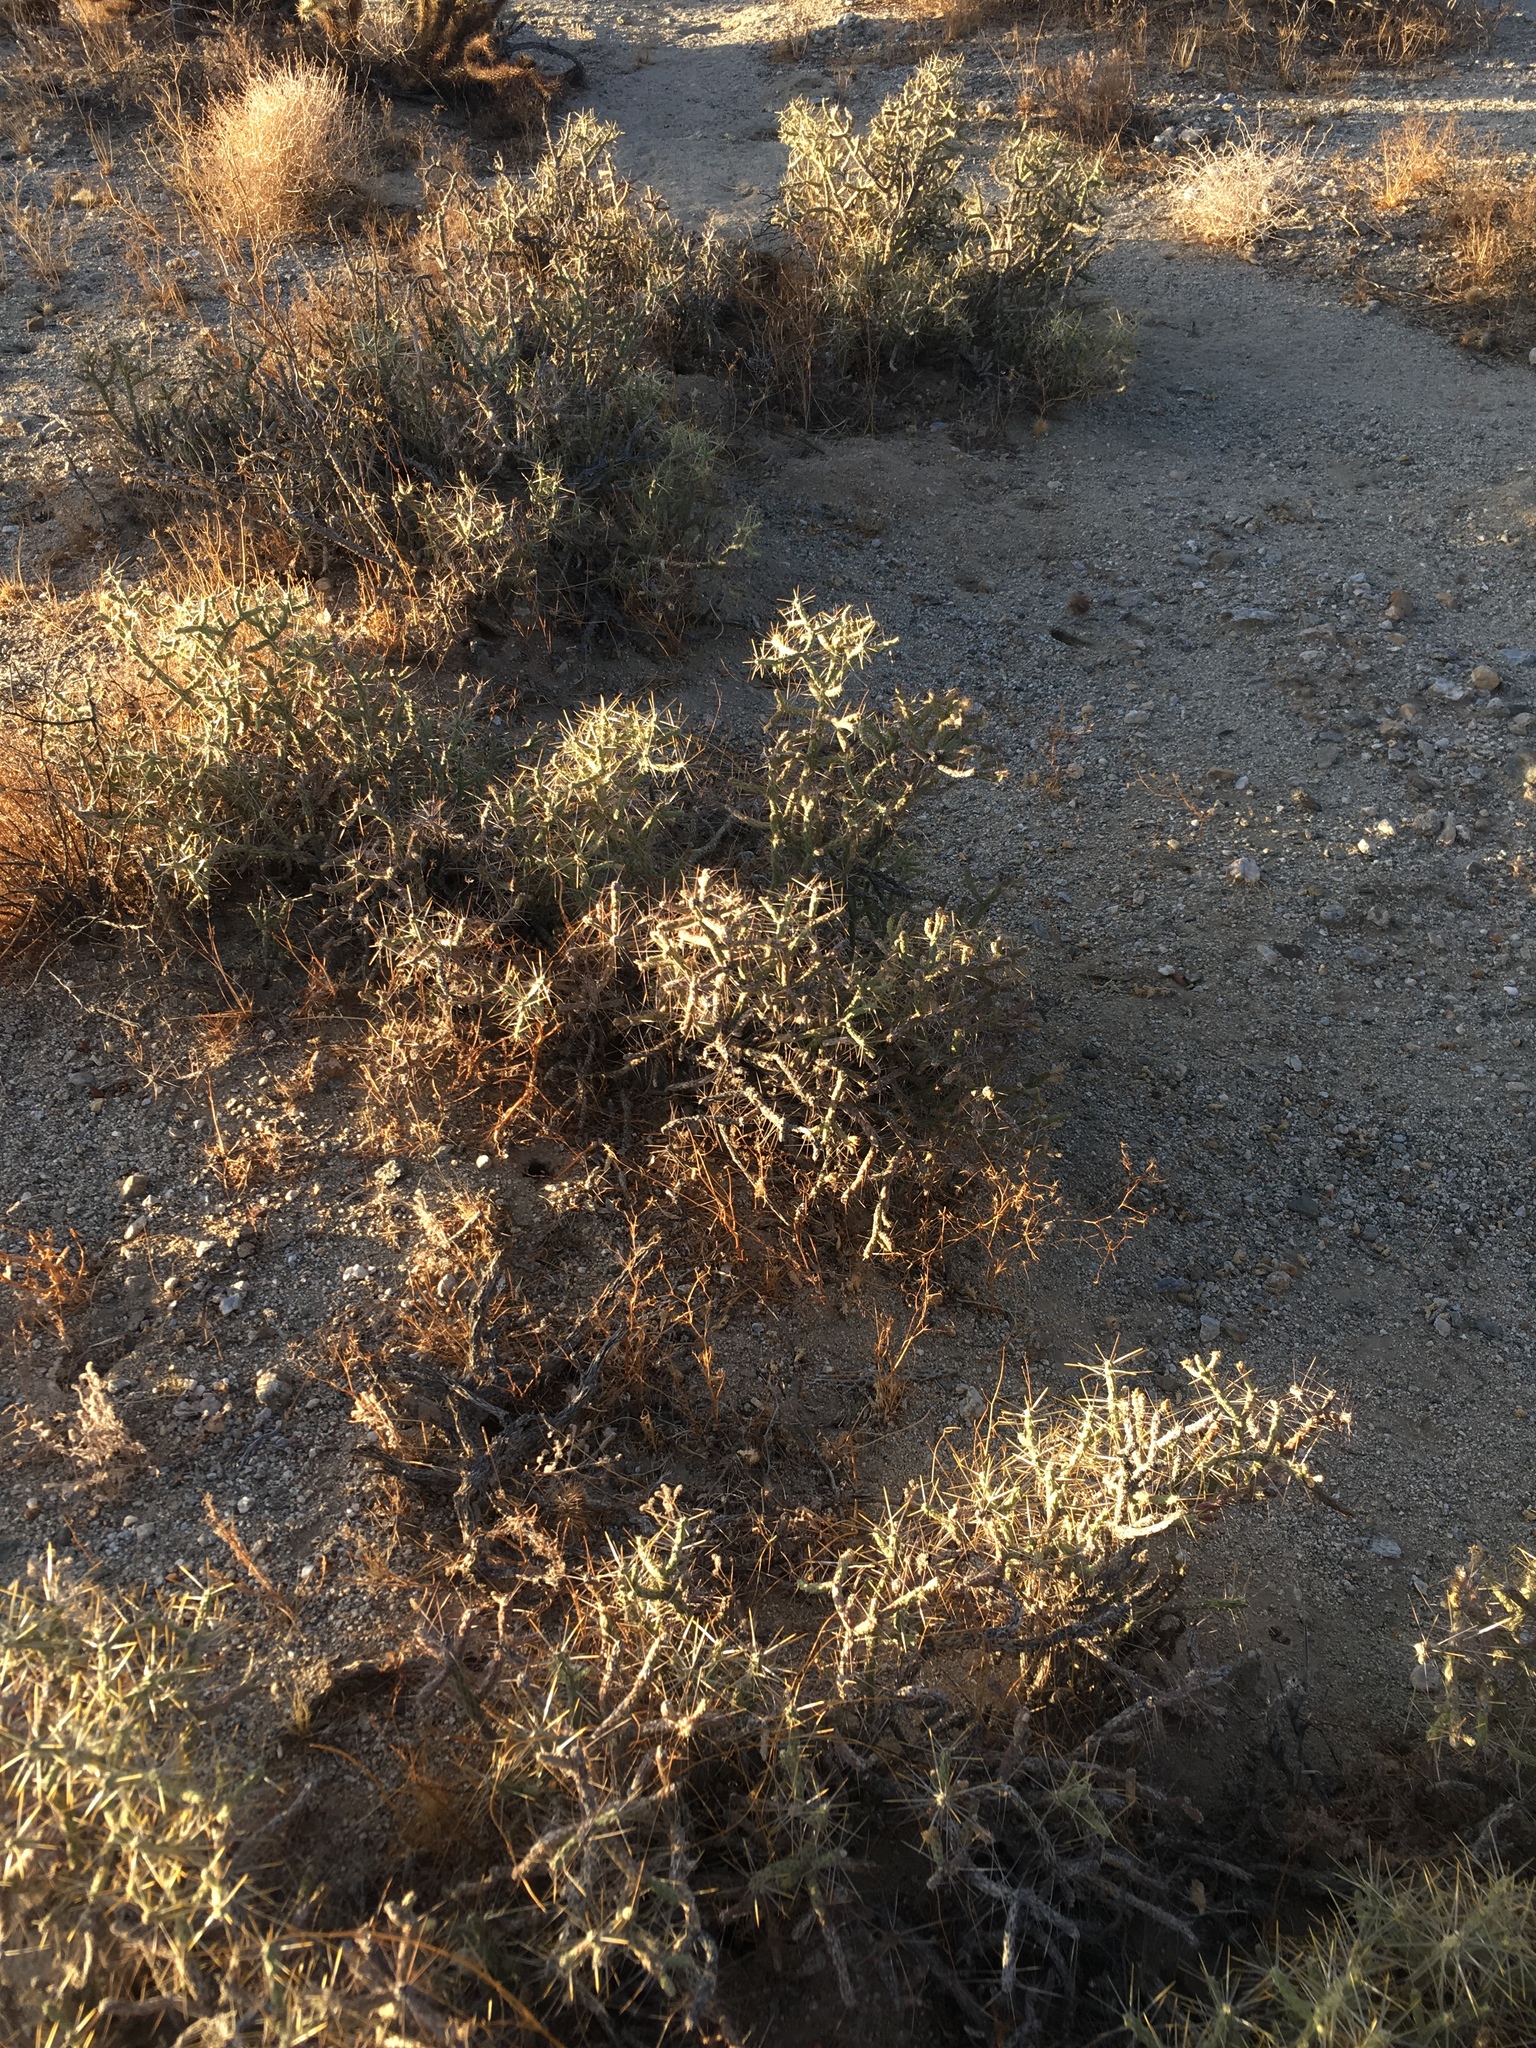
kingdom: Plantae
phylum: Tracheophyta
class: Magnoliopsida
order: Caryophyllales
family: Cactaceae
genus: Cylindropuntia
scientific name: Cylindropuntia ramosissima
